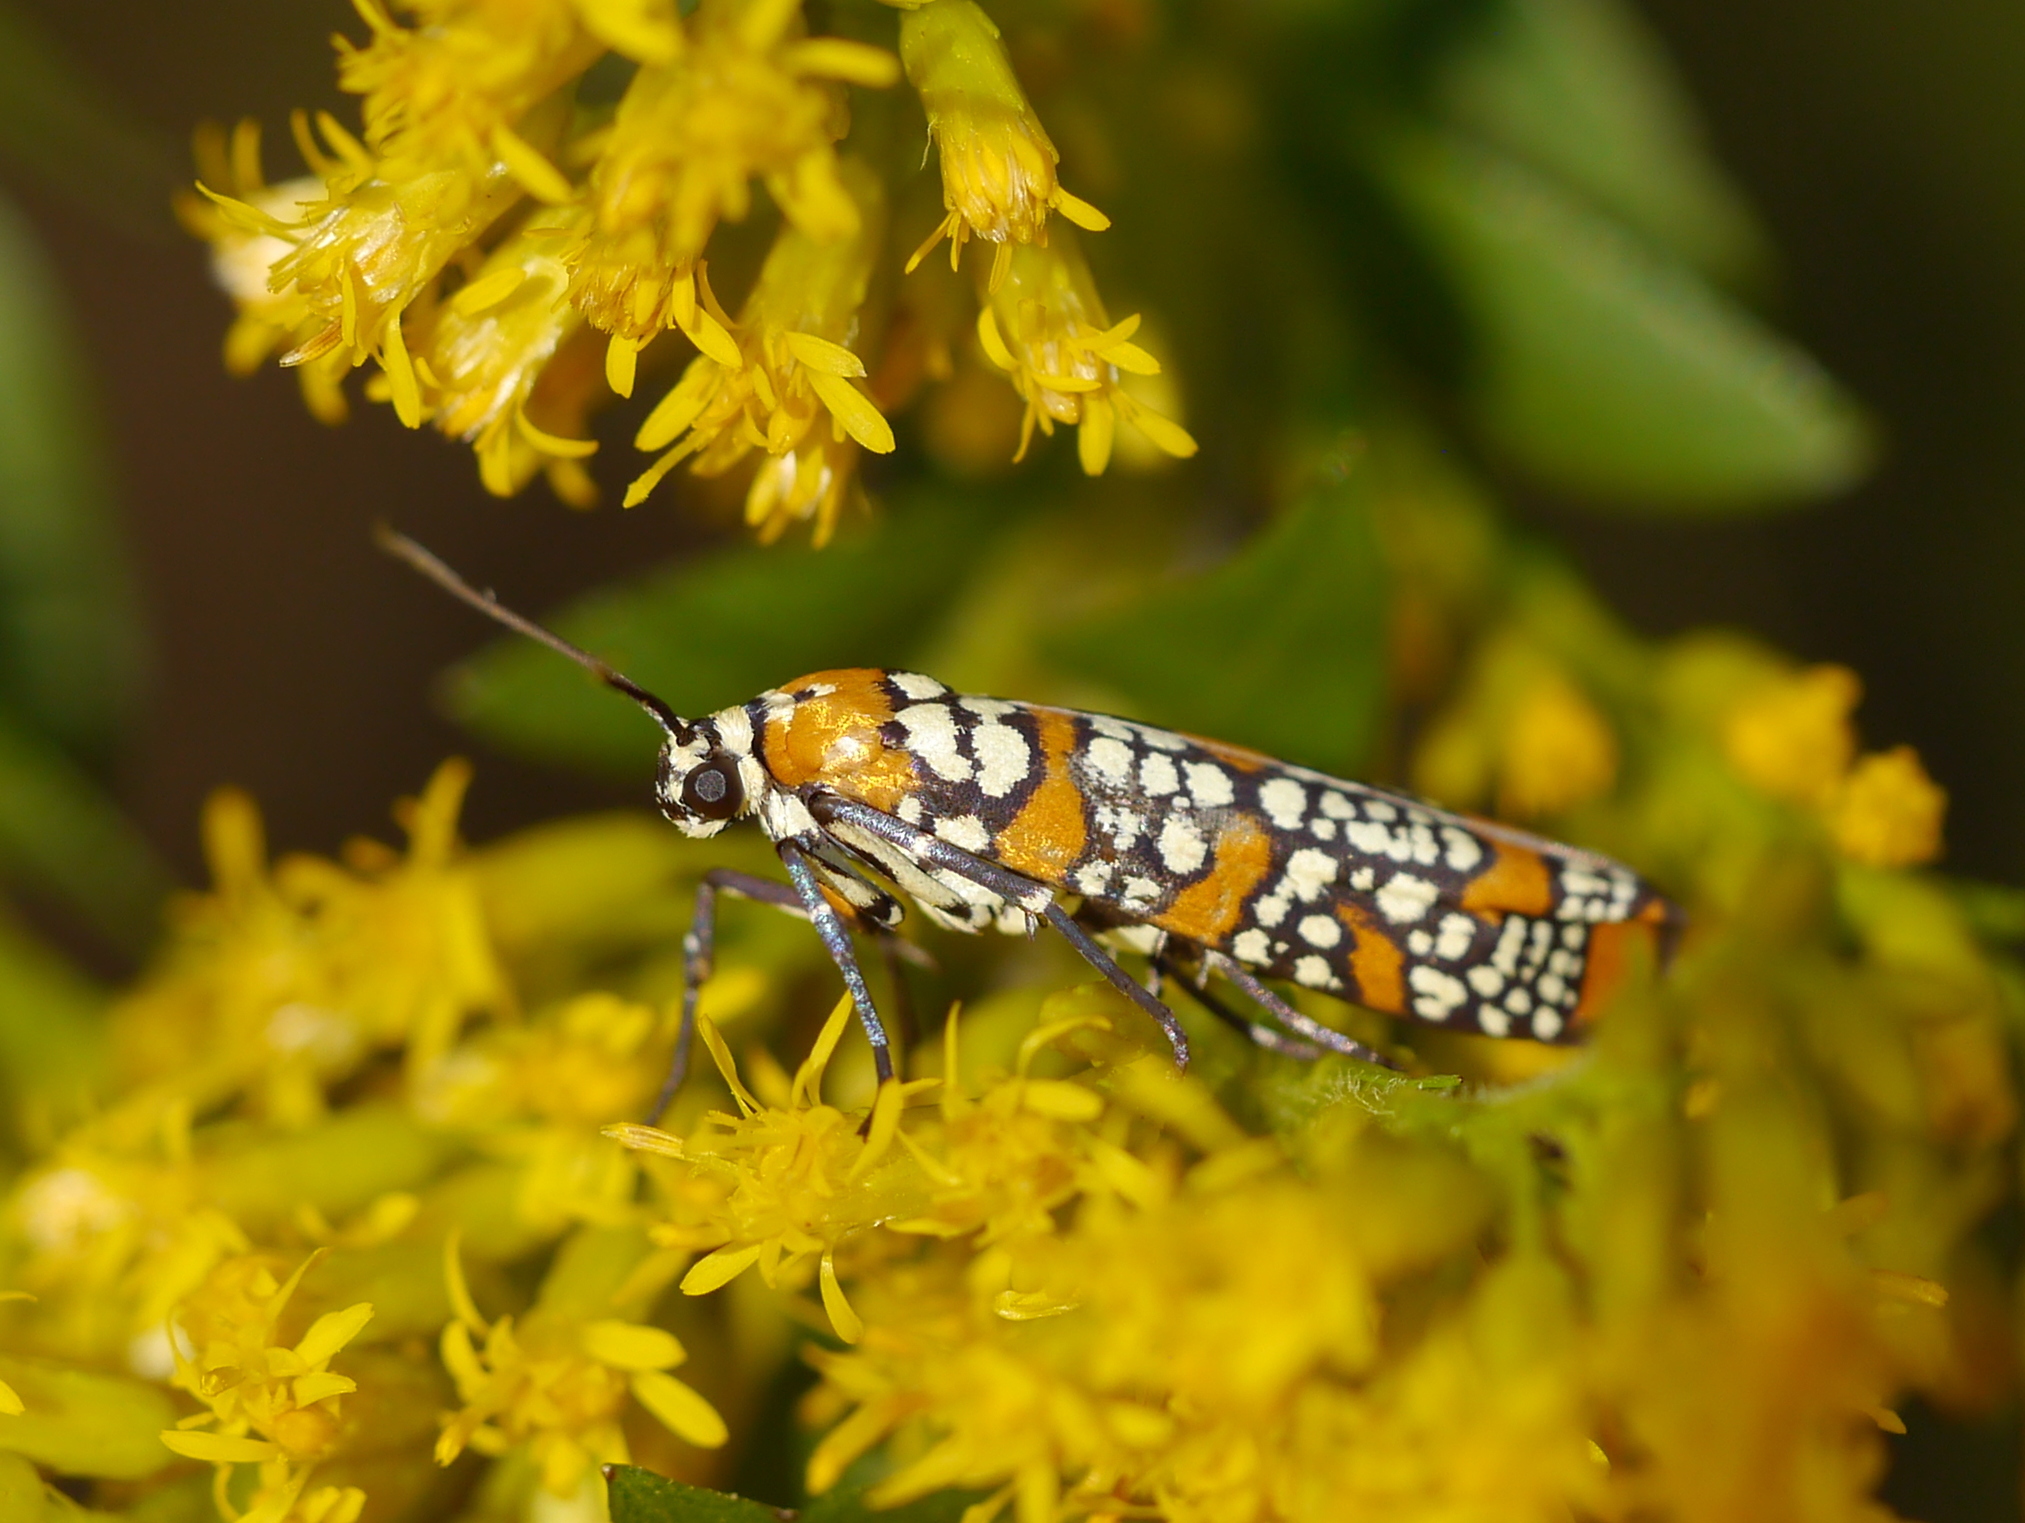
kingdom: Animalia
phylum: Arthropoda
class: Insecta
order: Lepidoptera
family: Attevidae
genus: Atteva
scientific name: Atteva punctella
